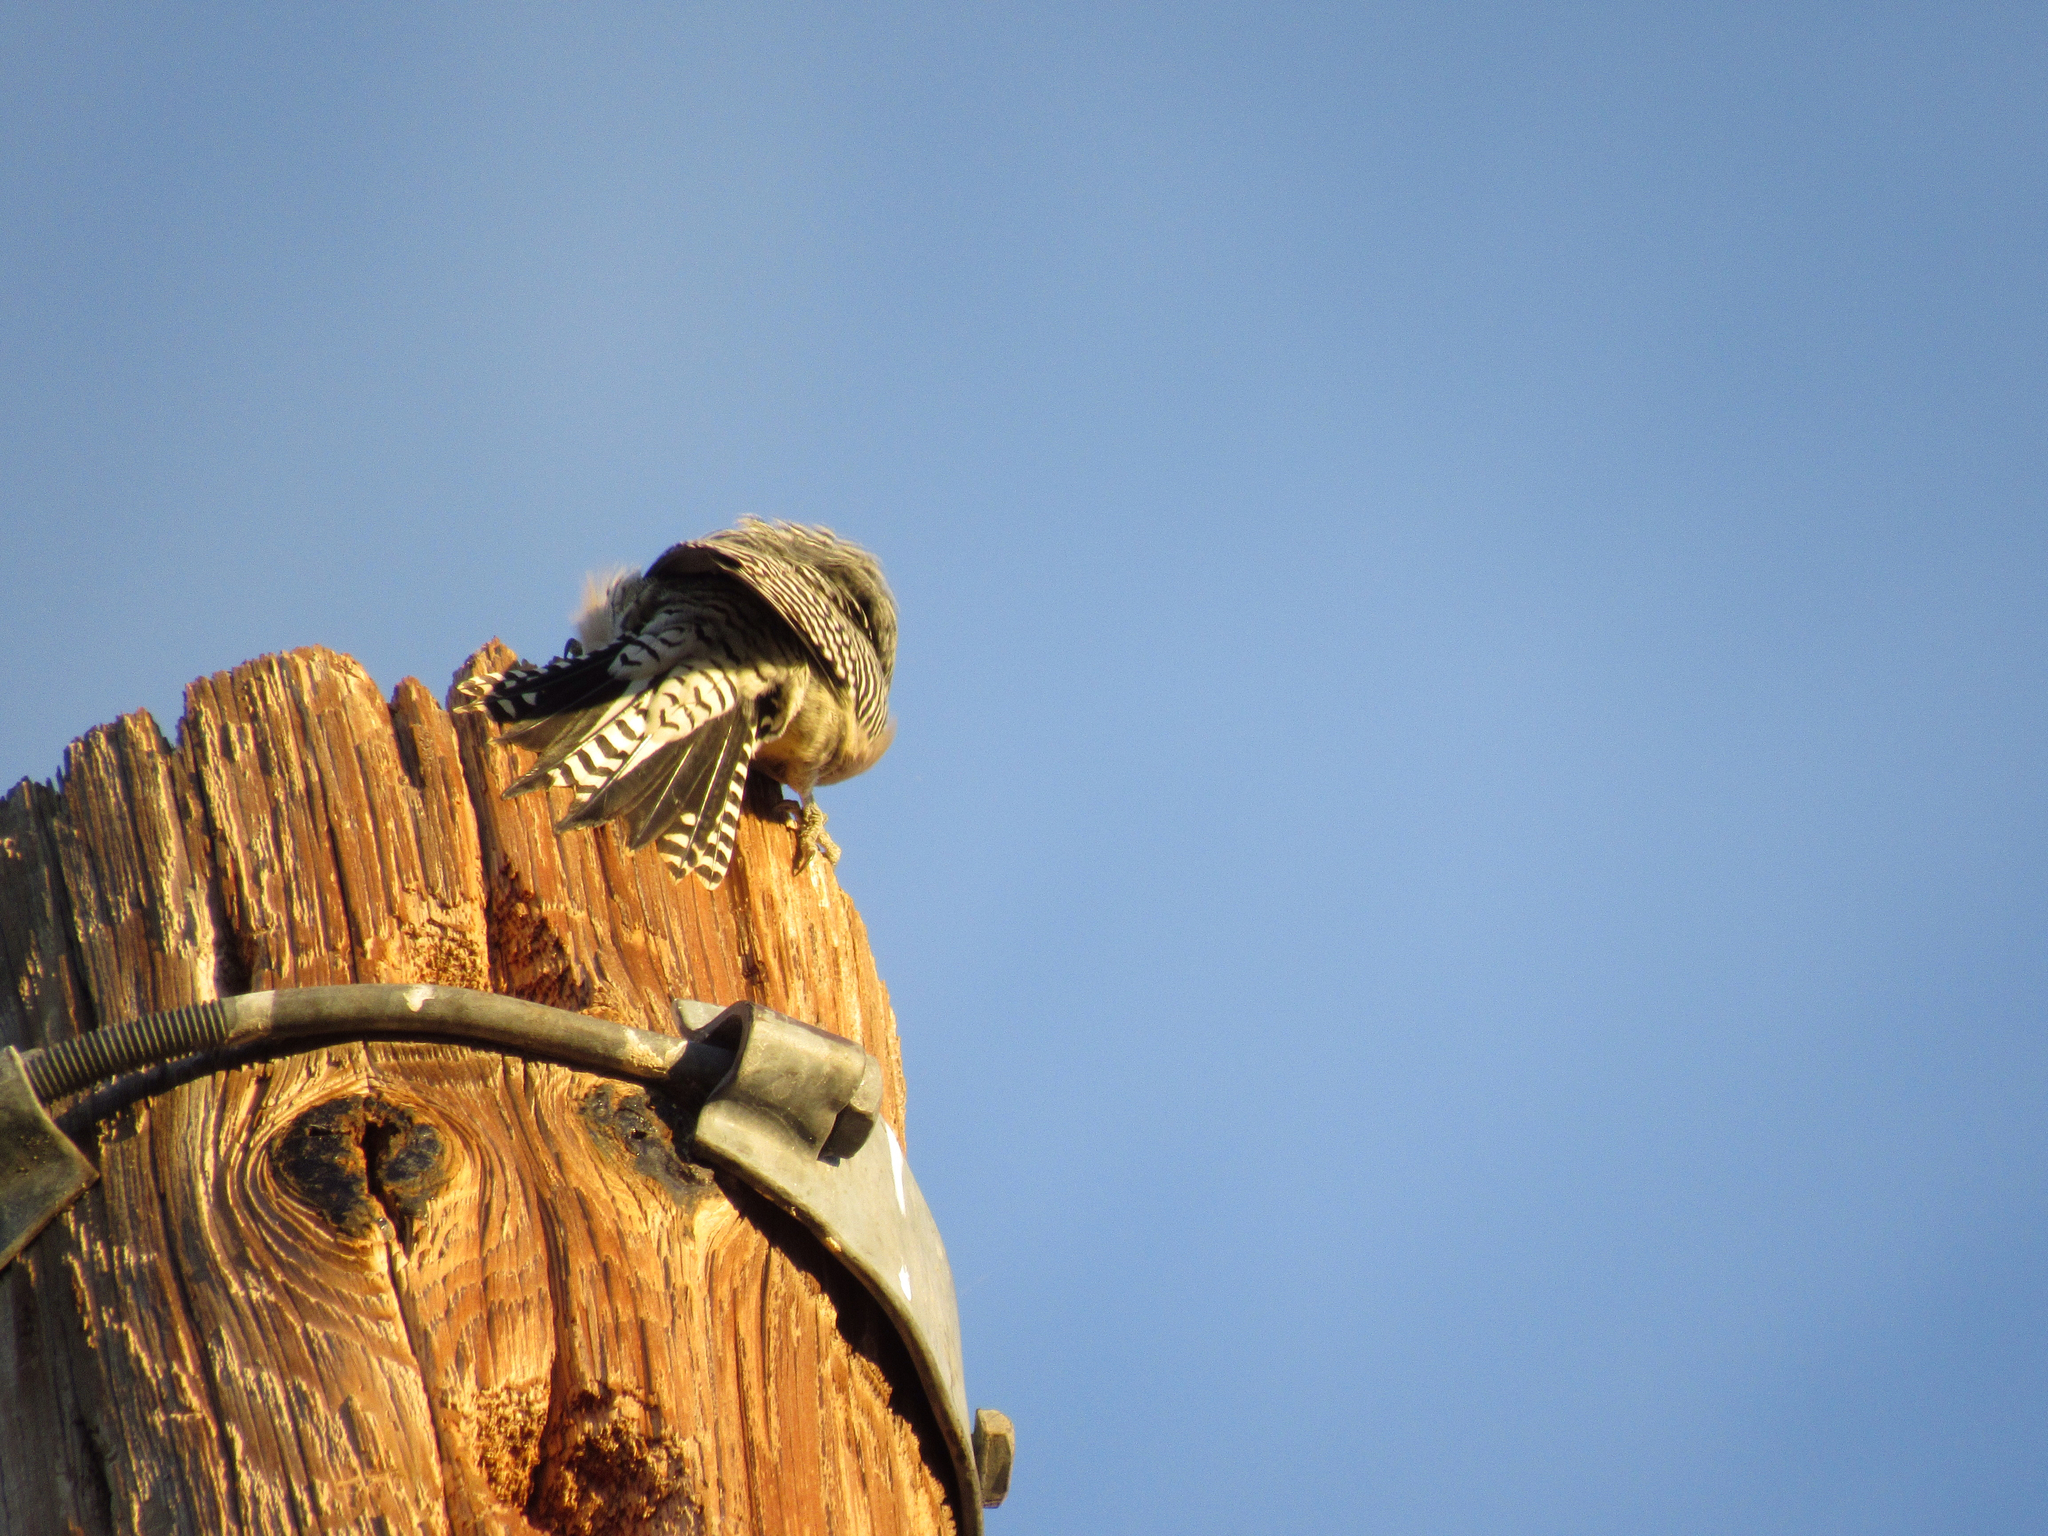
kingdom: Animalia
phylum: Chordata
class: Aves
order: Piciformes
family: Picidae
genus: Melanerpes
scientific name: Melanerpes uropygialis
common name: Gila woodpecker
